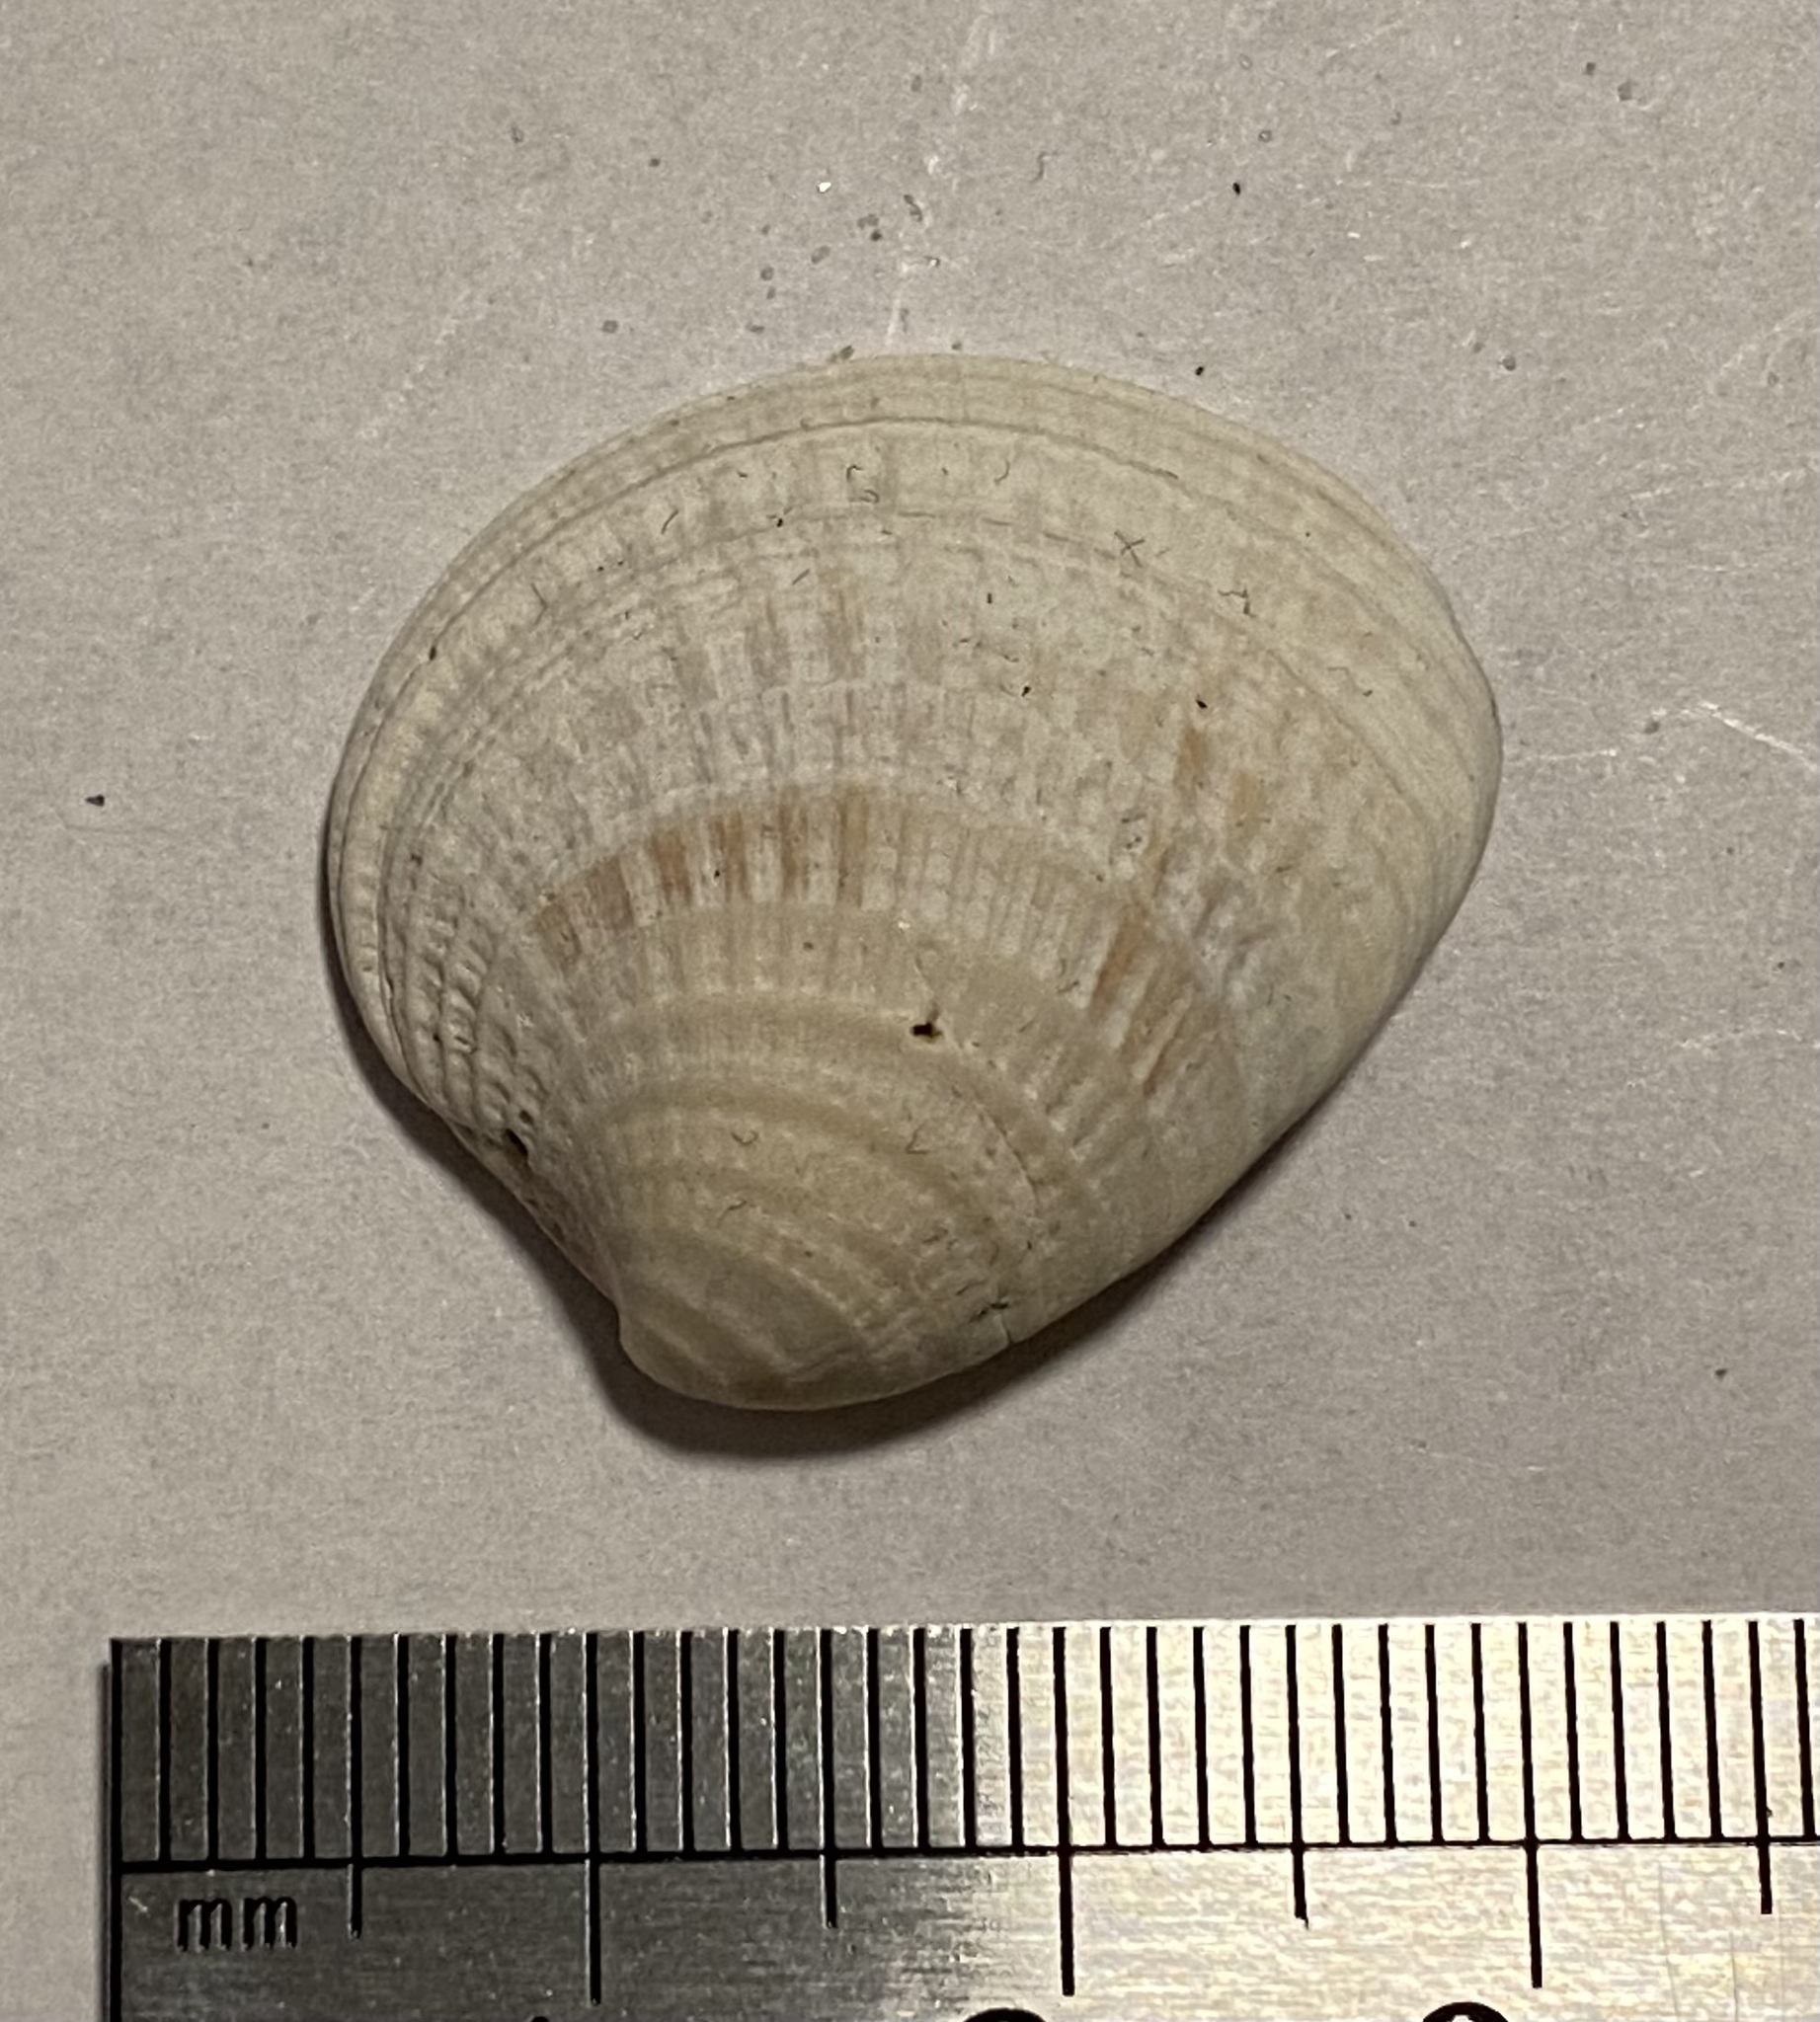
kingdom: Animalia
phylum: Mollusca
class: Bivalvia
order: Venerida
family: Veneridae
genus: Chione
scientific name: Chione elevata
